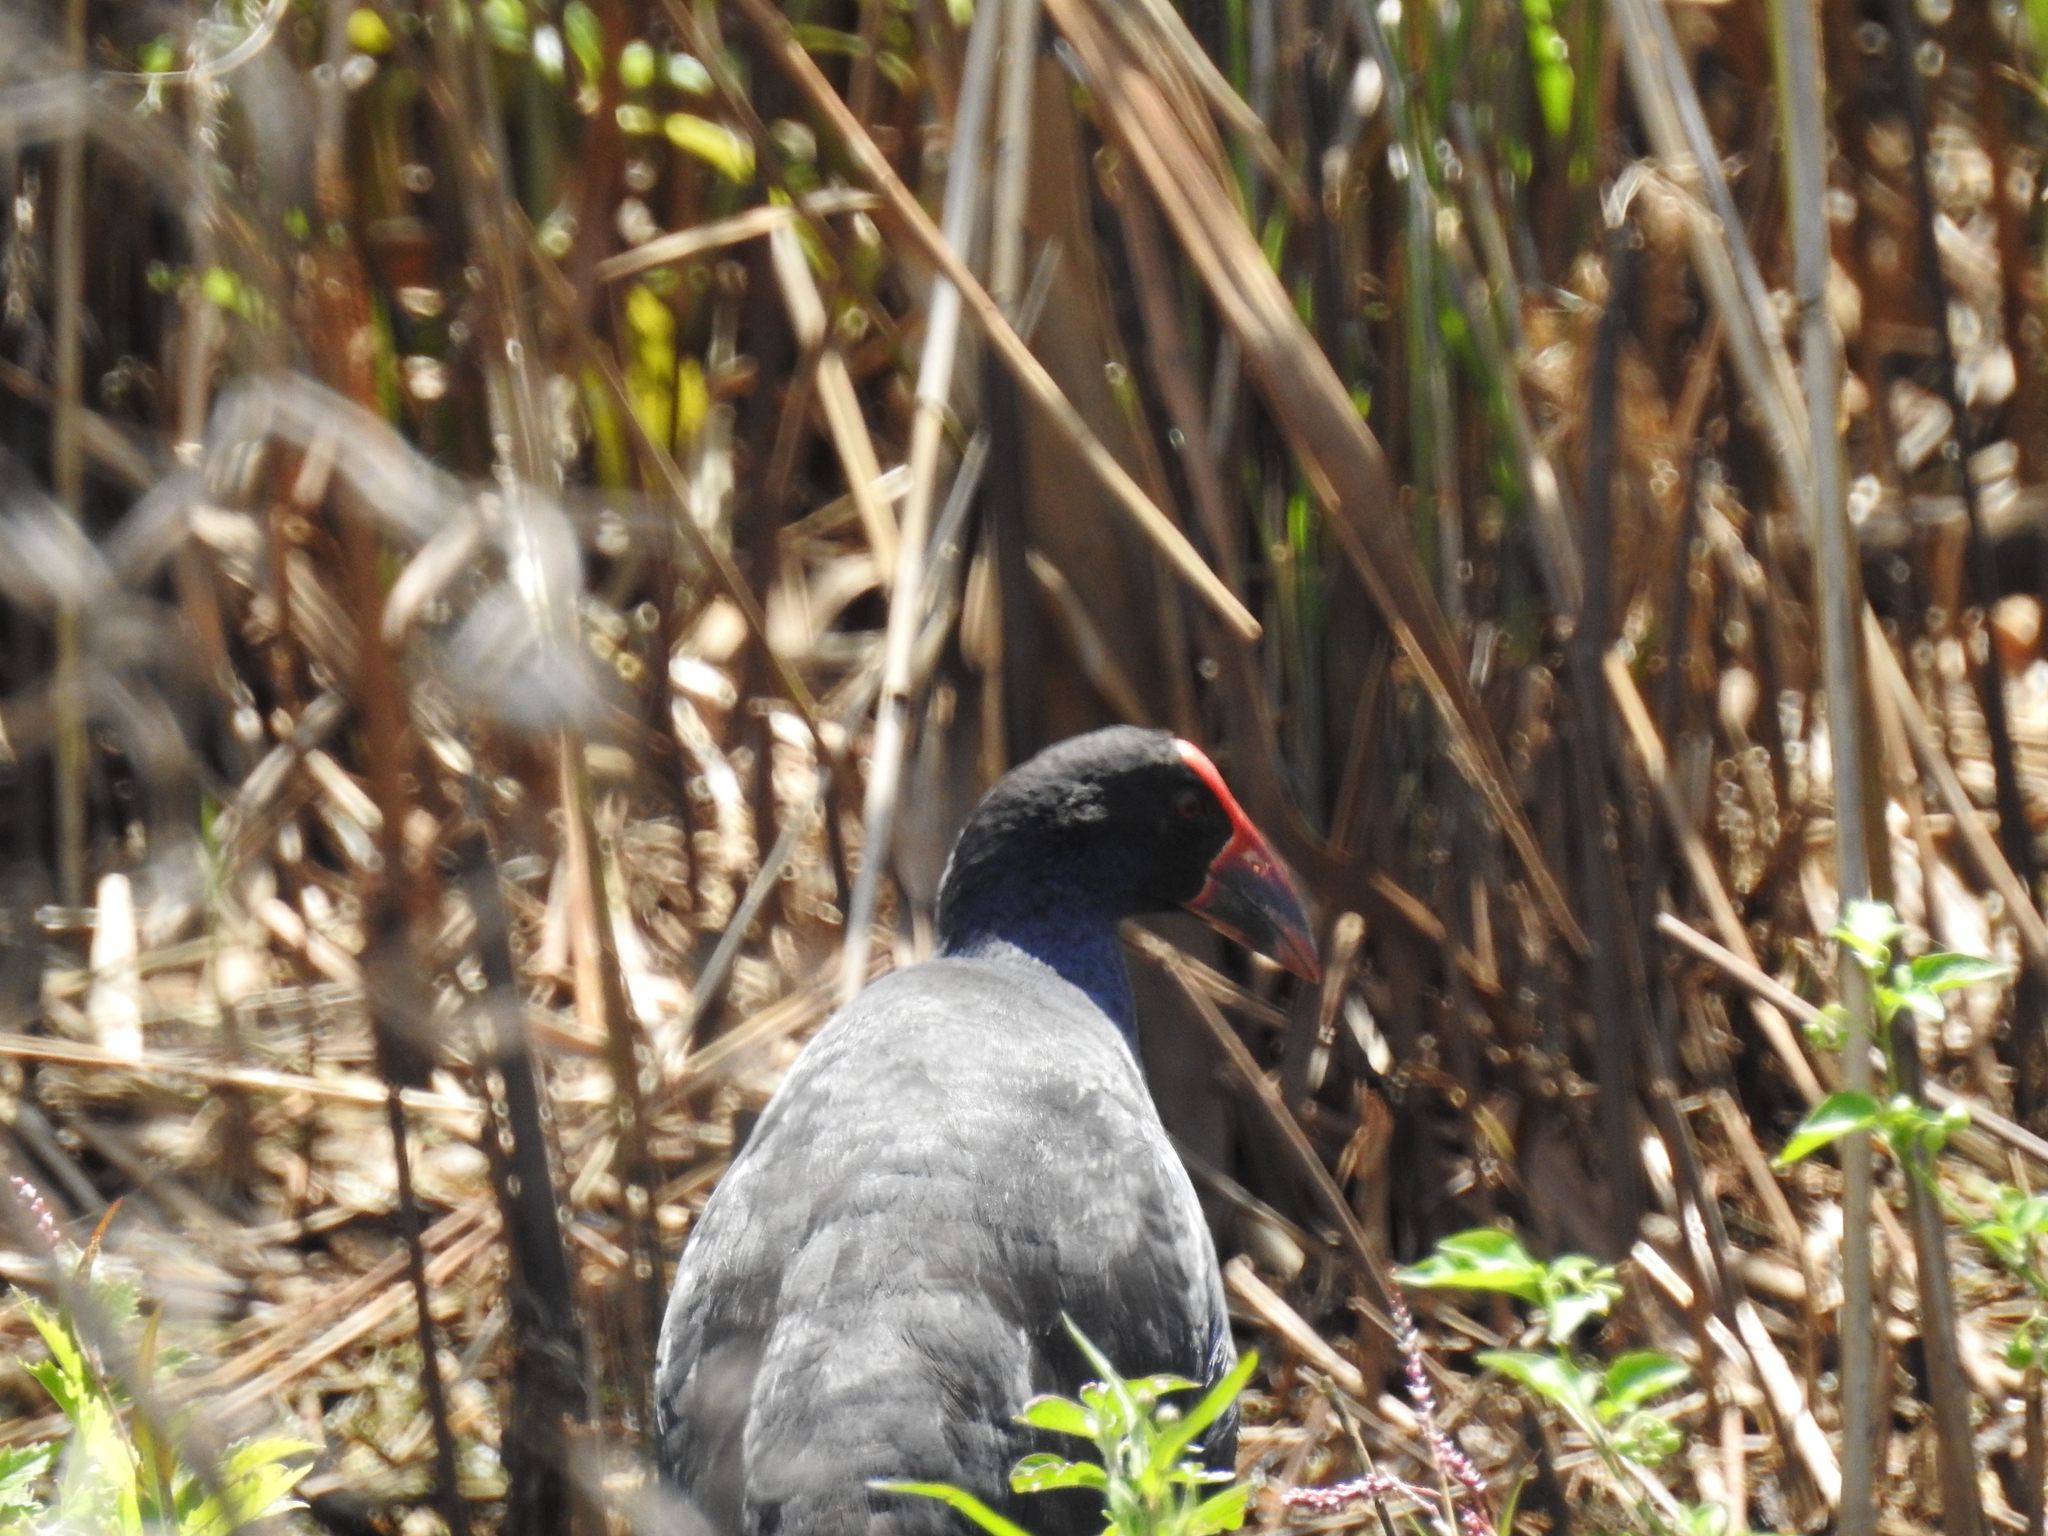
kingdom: Animalia
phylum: Chordata
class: Aves
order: Gruiformes
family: Rallidae
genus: Porphyrio
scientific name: Porphyrio melanotus
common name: Australasian swamphen
